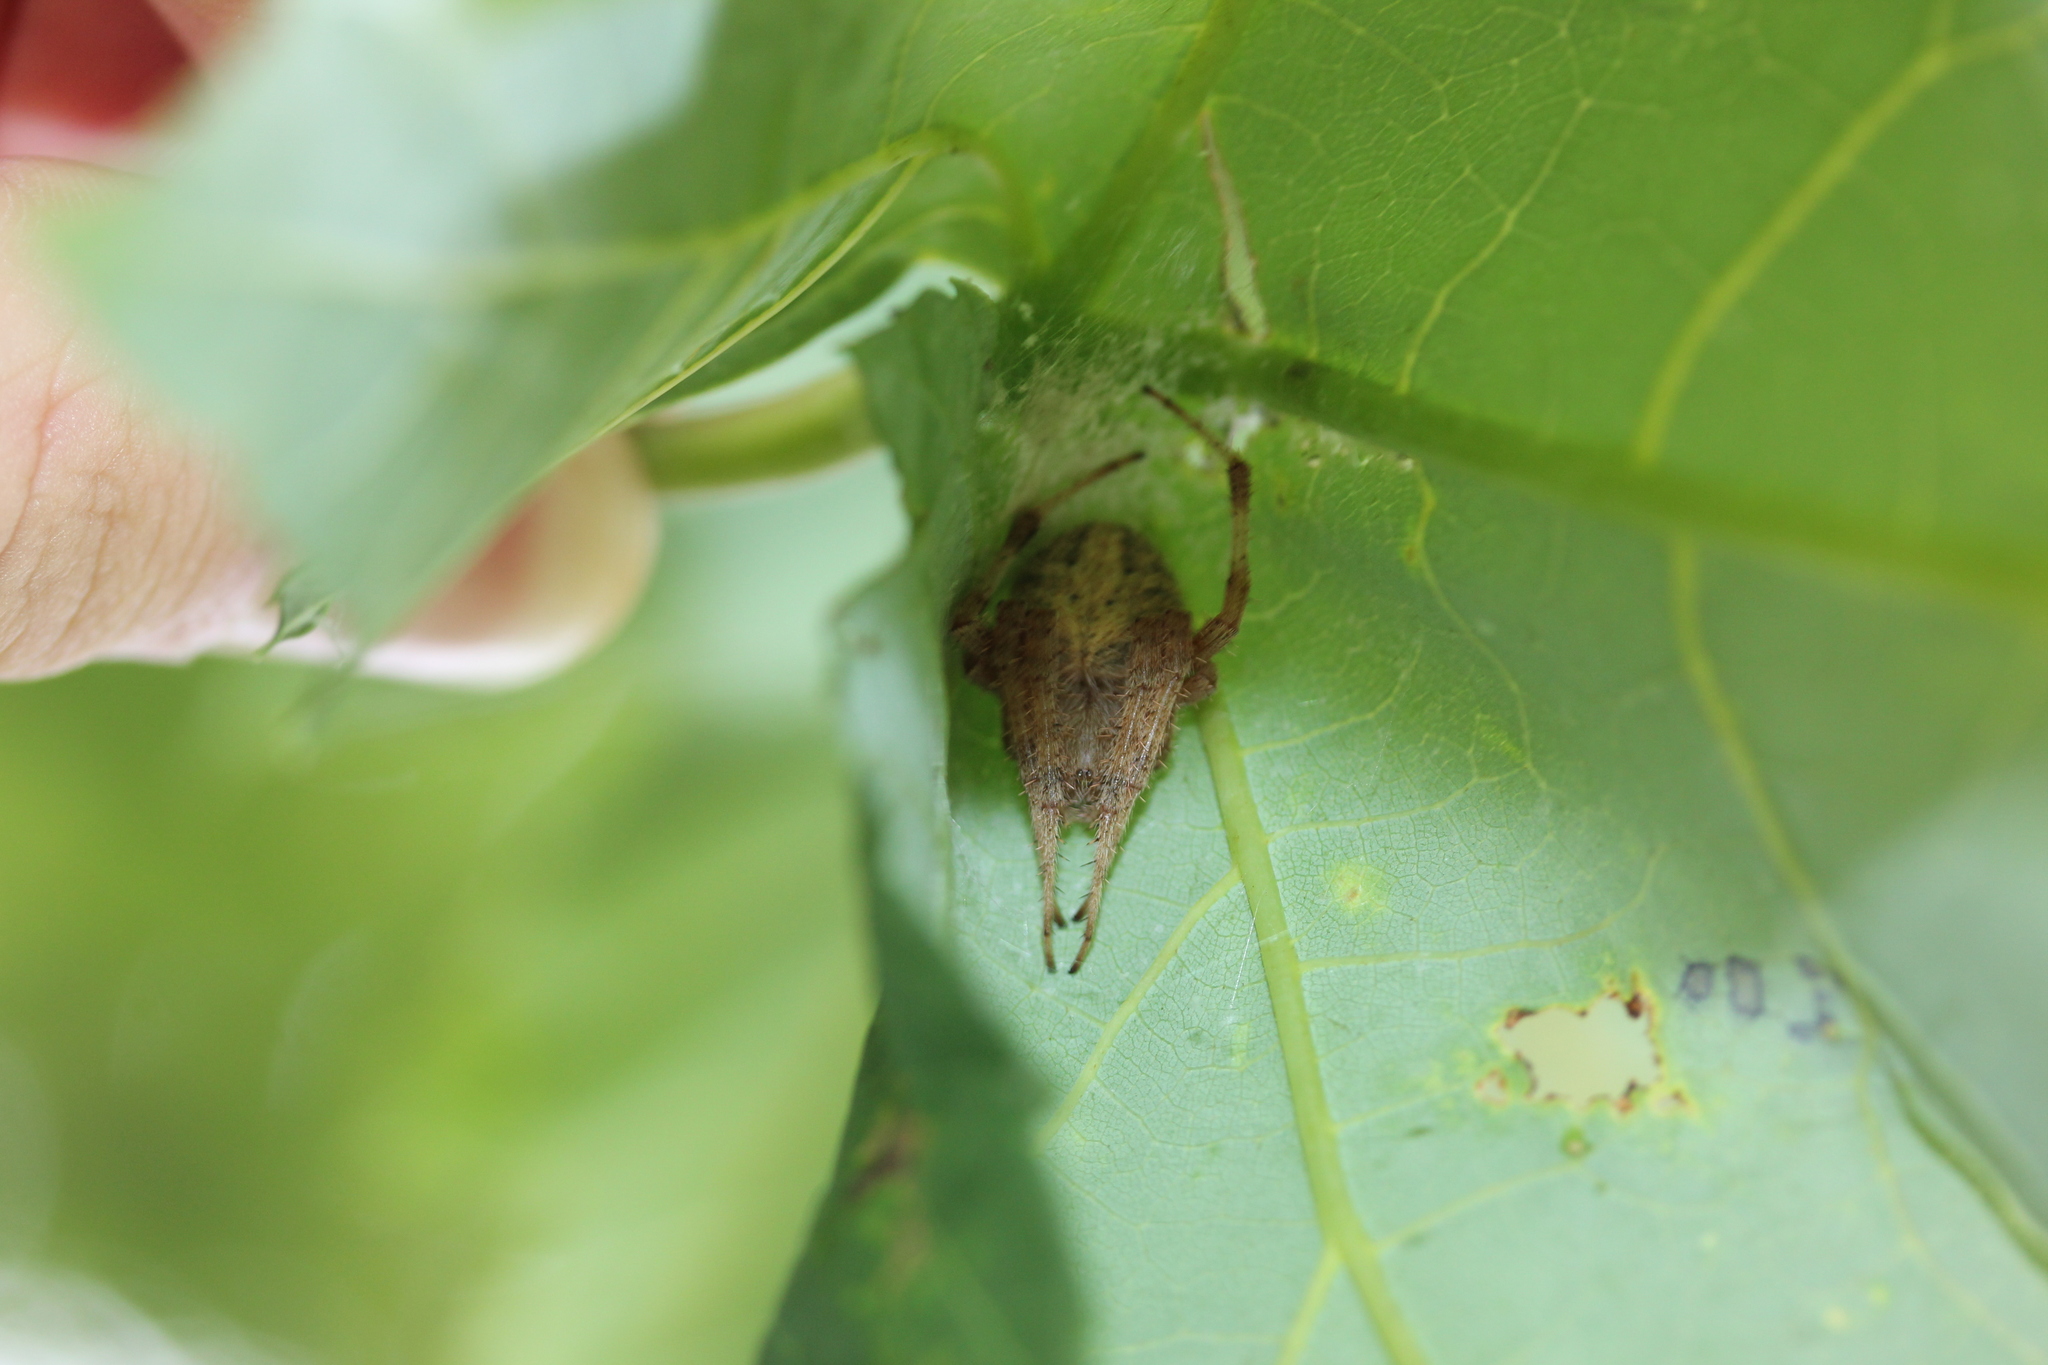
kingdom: Animalia
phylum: Arthropoda
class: Arachnida
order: Araneae
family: Araneidae
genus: Neoscona
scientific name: Neoscona crucifera
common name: Spotted orbweaver
